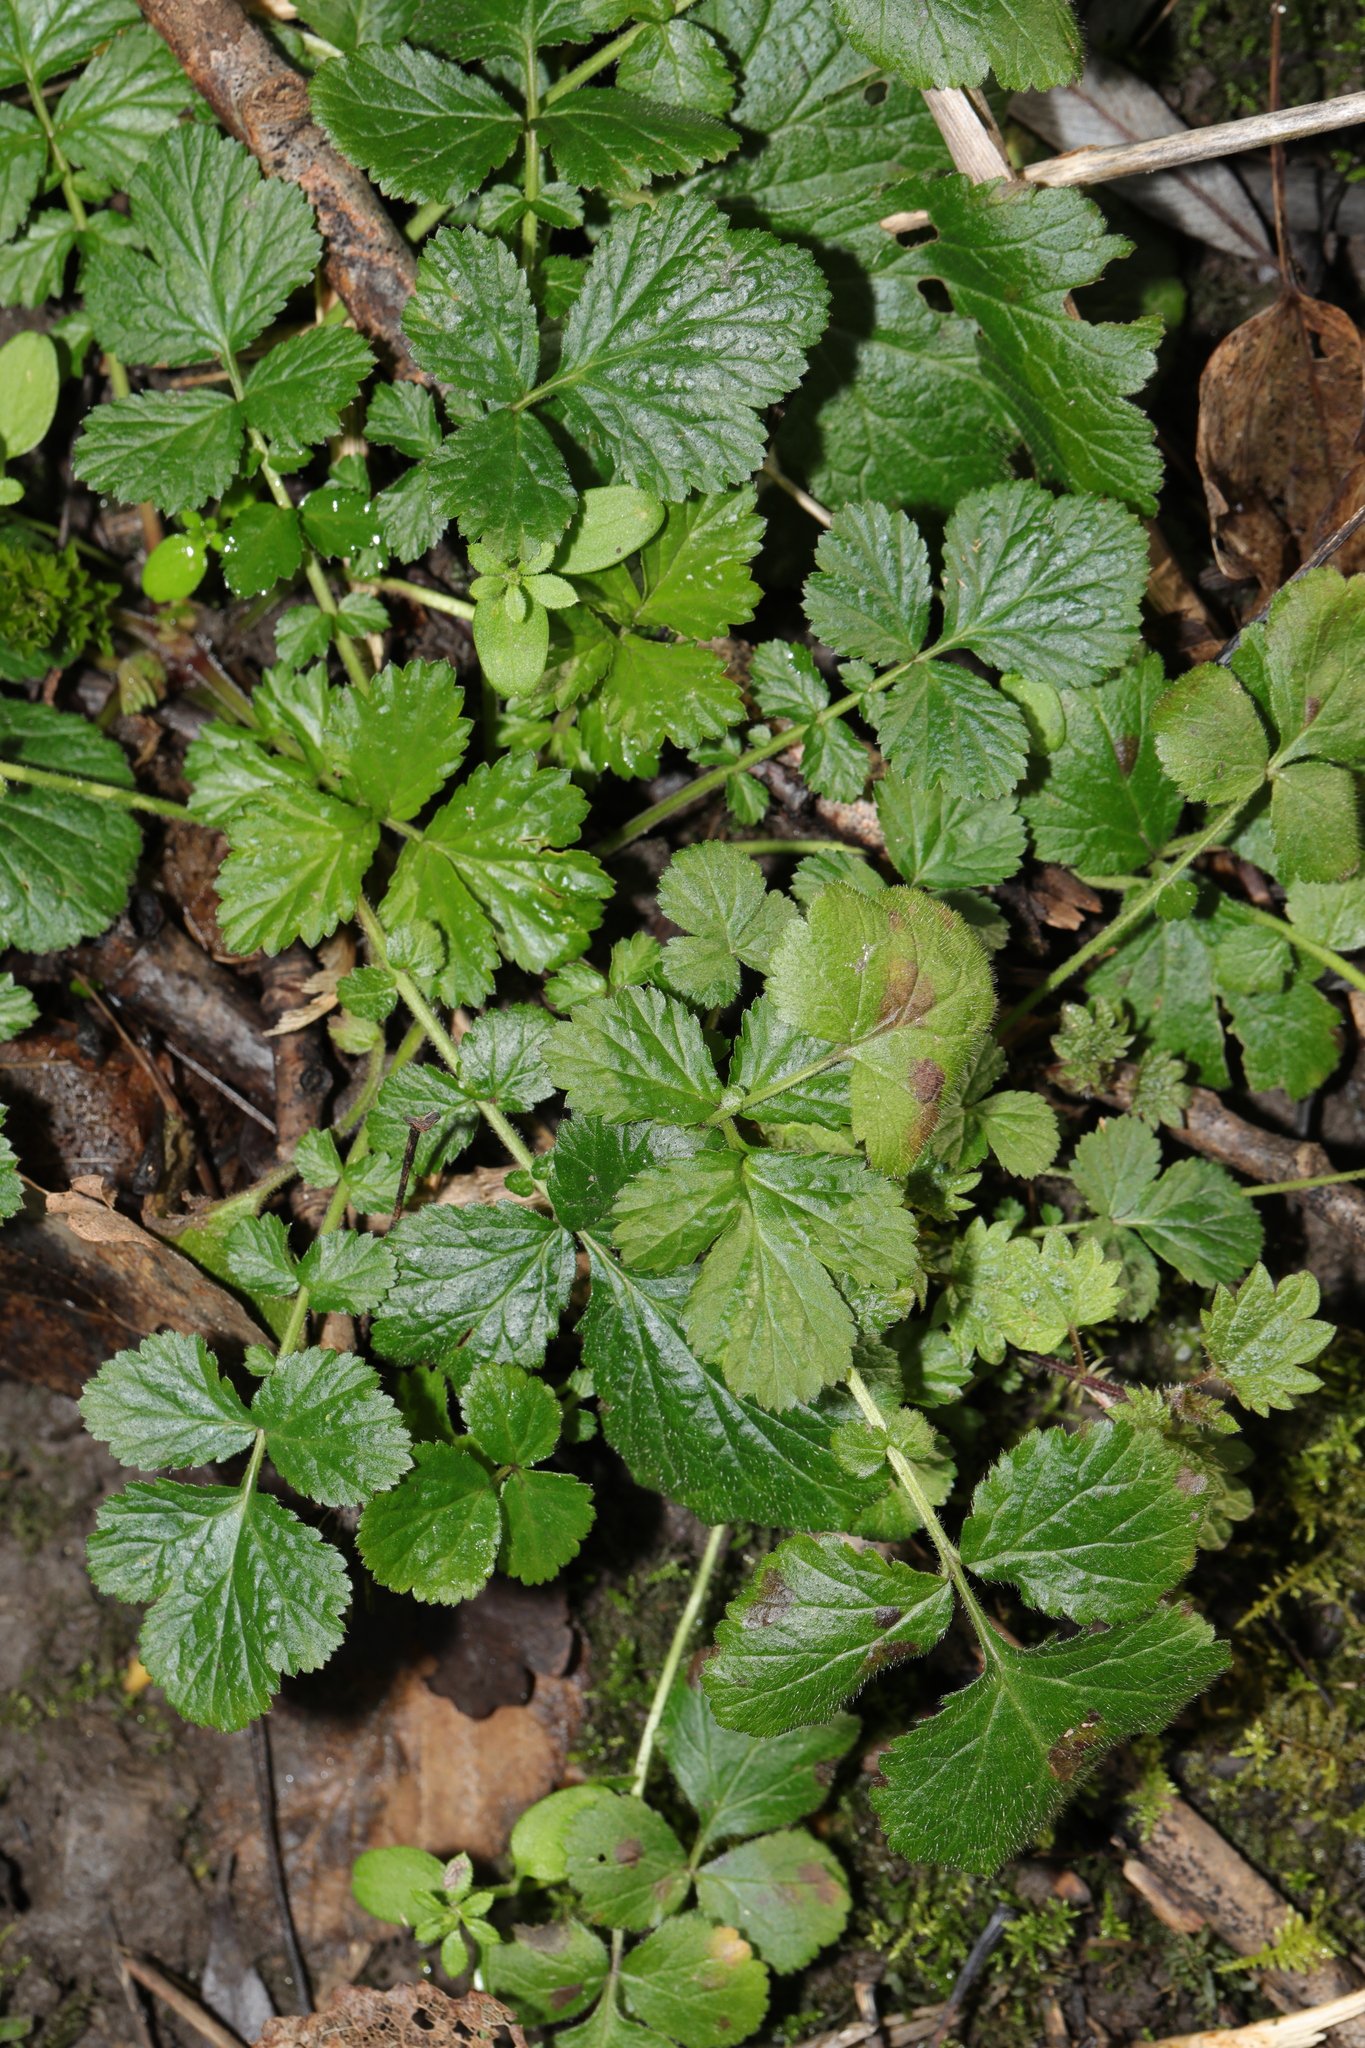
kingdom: Plantae
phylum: Tracheophyta
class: Magnoliopsida
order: Rosales
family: Rosaceae
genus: Geum
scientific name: Geum urbanum
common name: Wood avens
